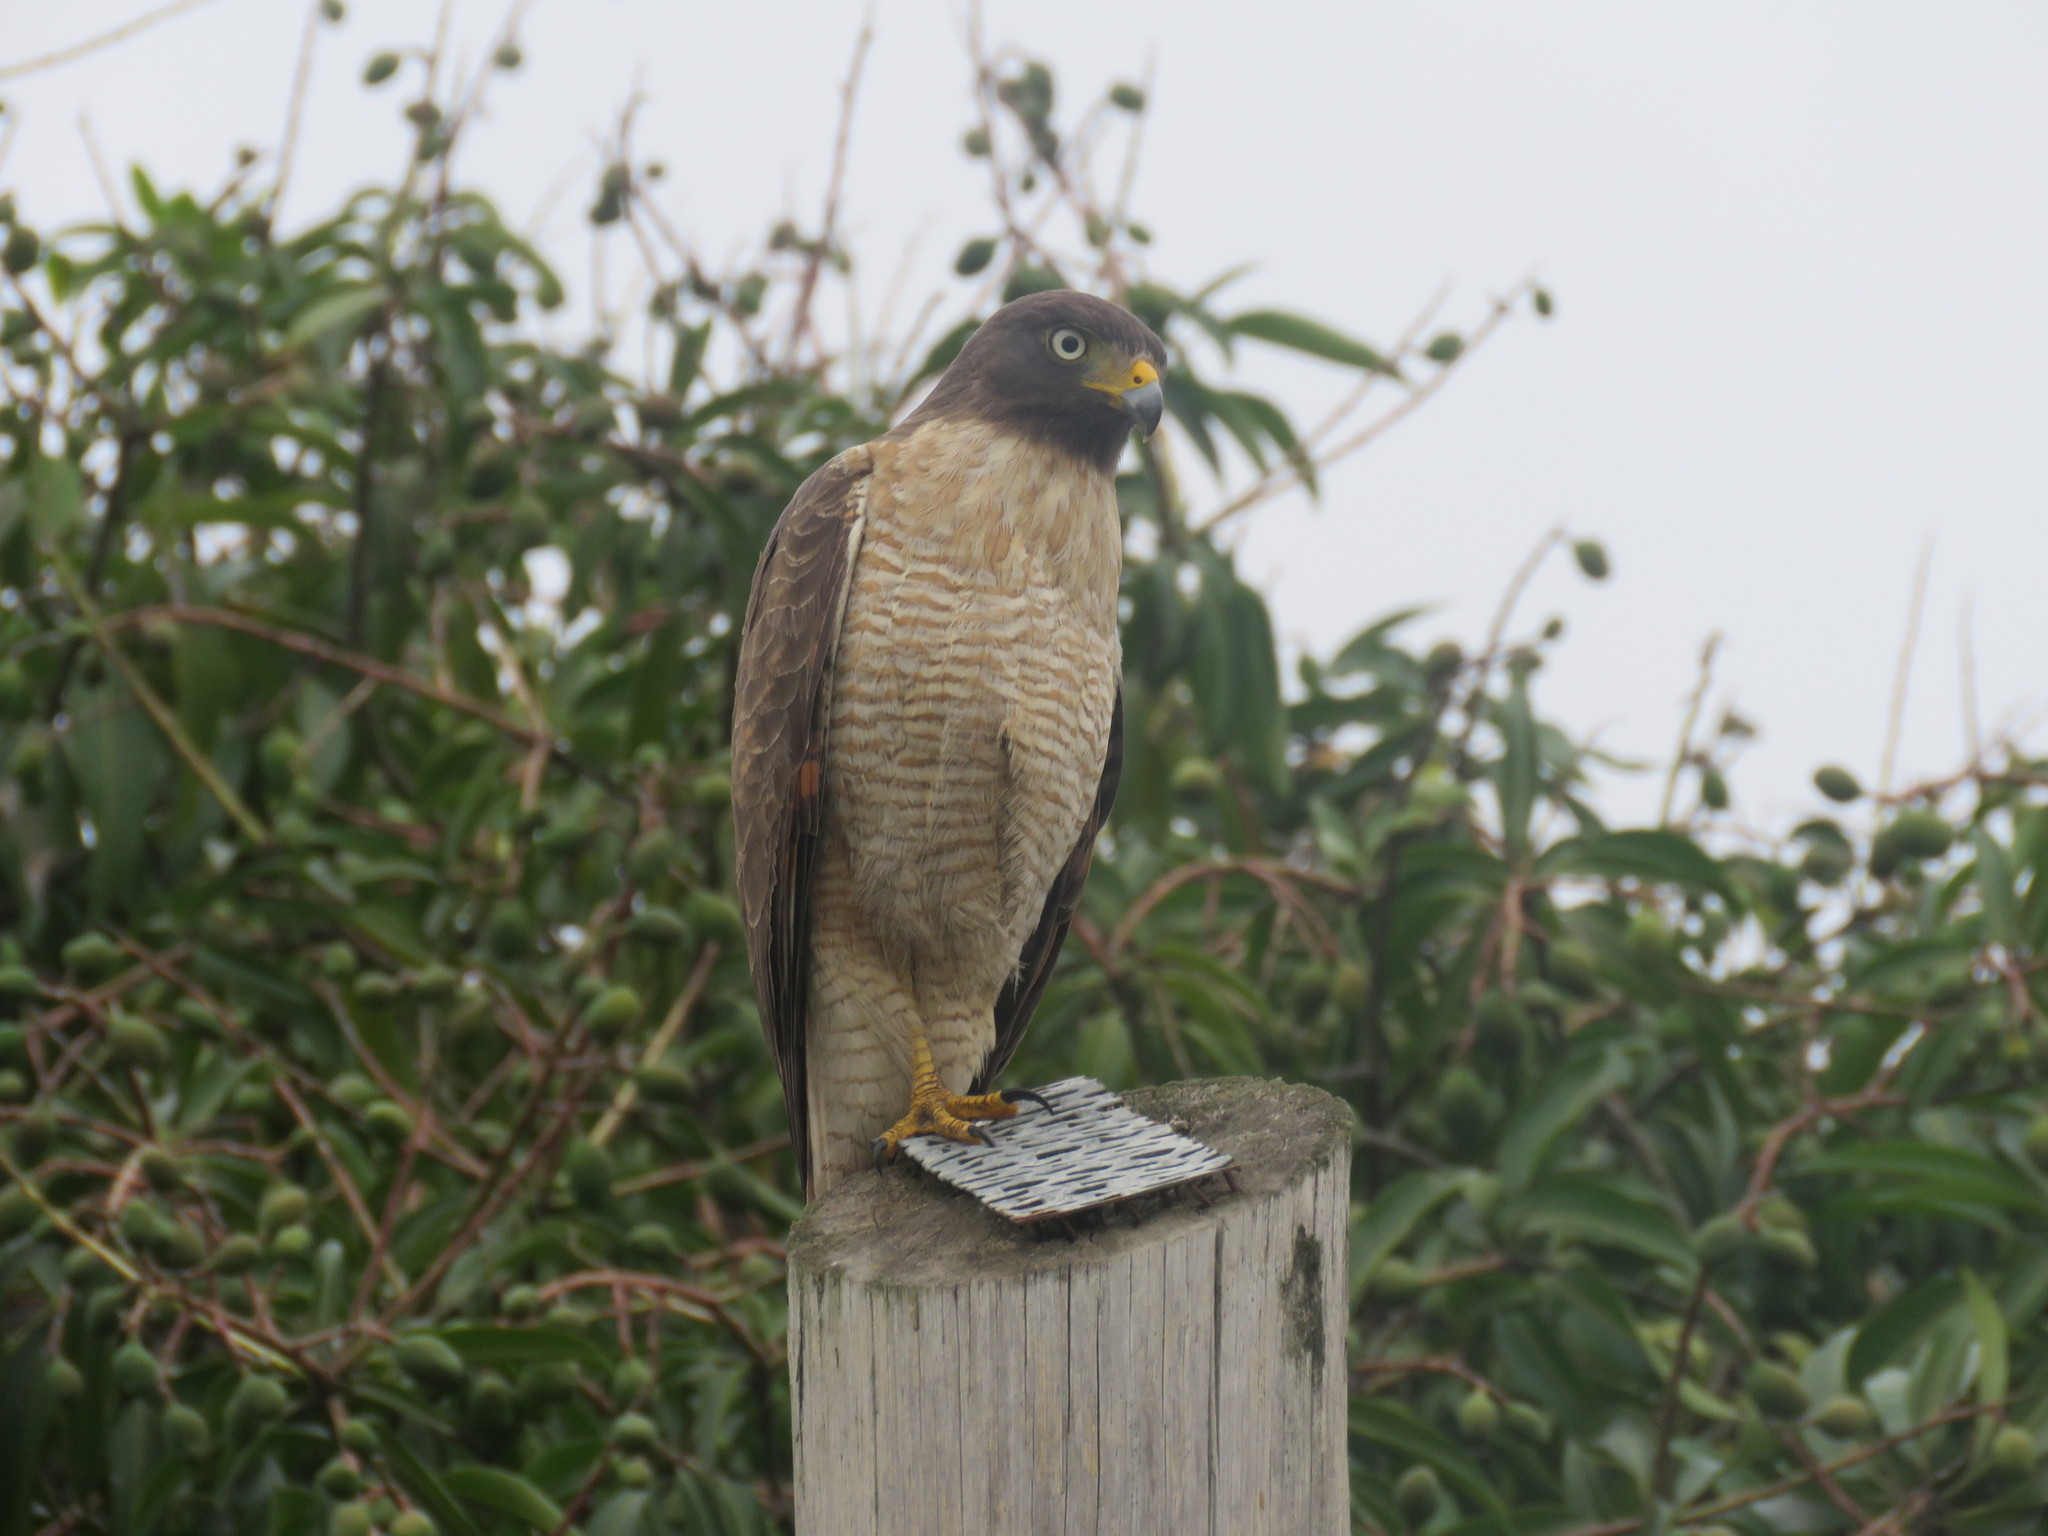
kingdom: Animalia
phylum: Chordata
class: Aves
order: Accipitriformes
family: Accipitridae
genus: Rupornis
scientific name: Rupornis magnirostris
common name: Roadside hawk
